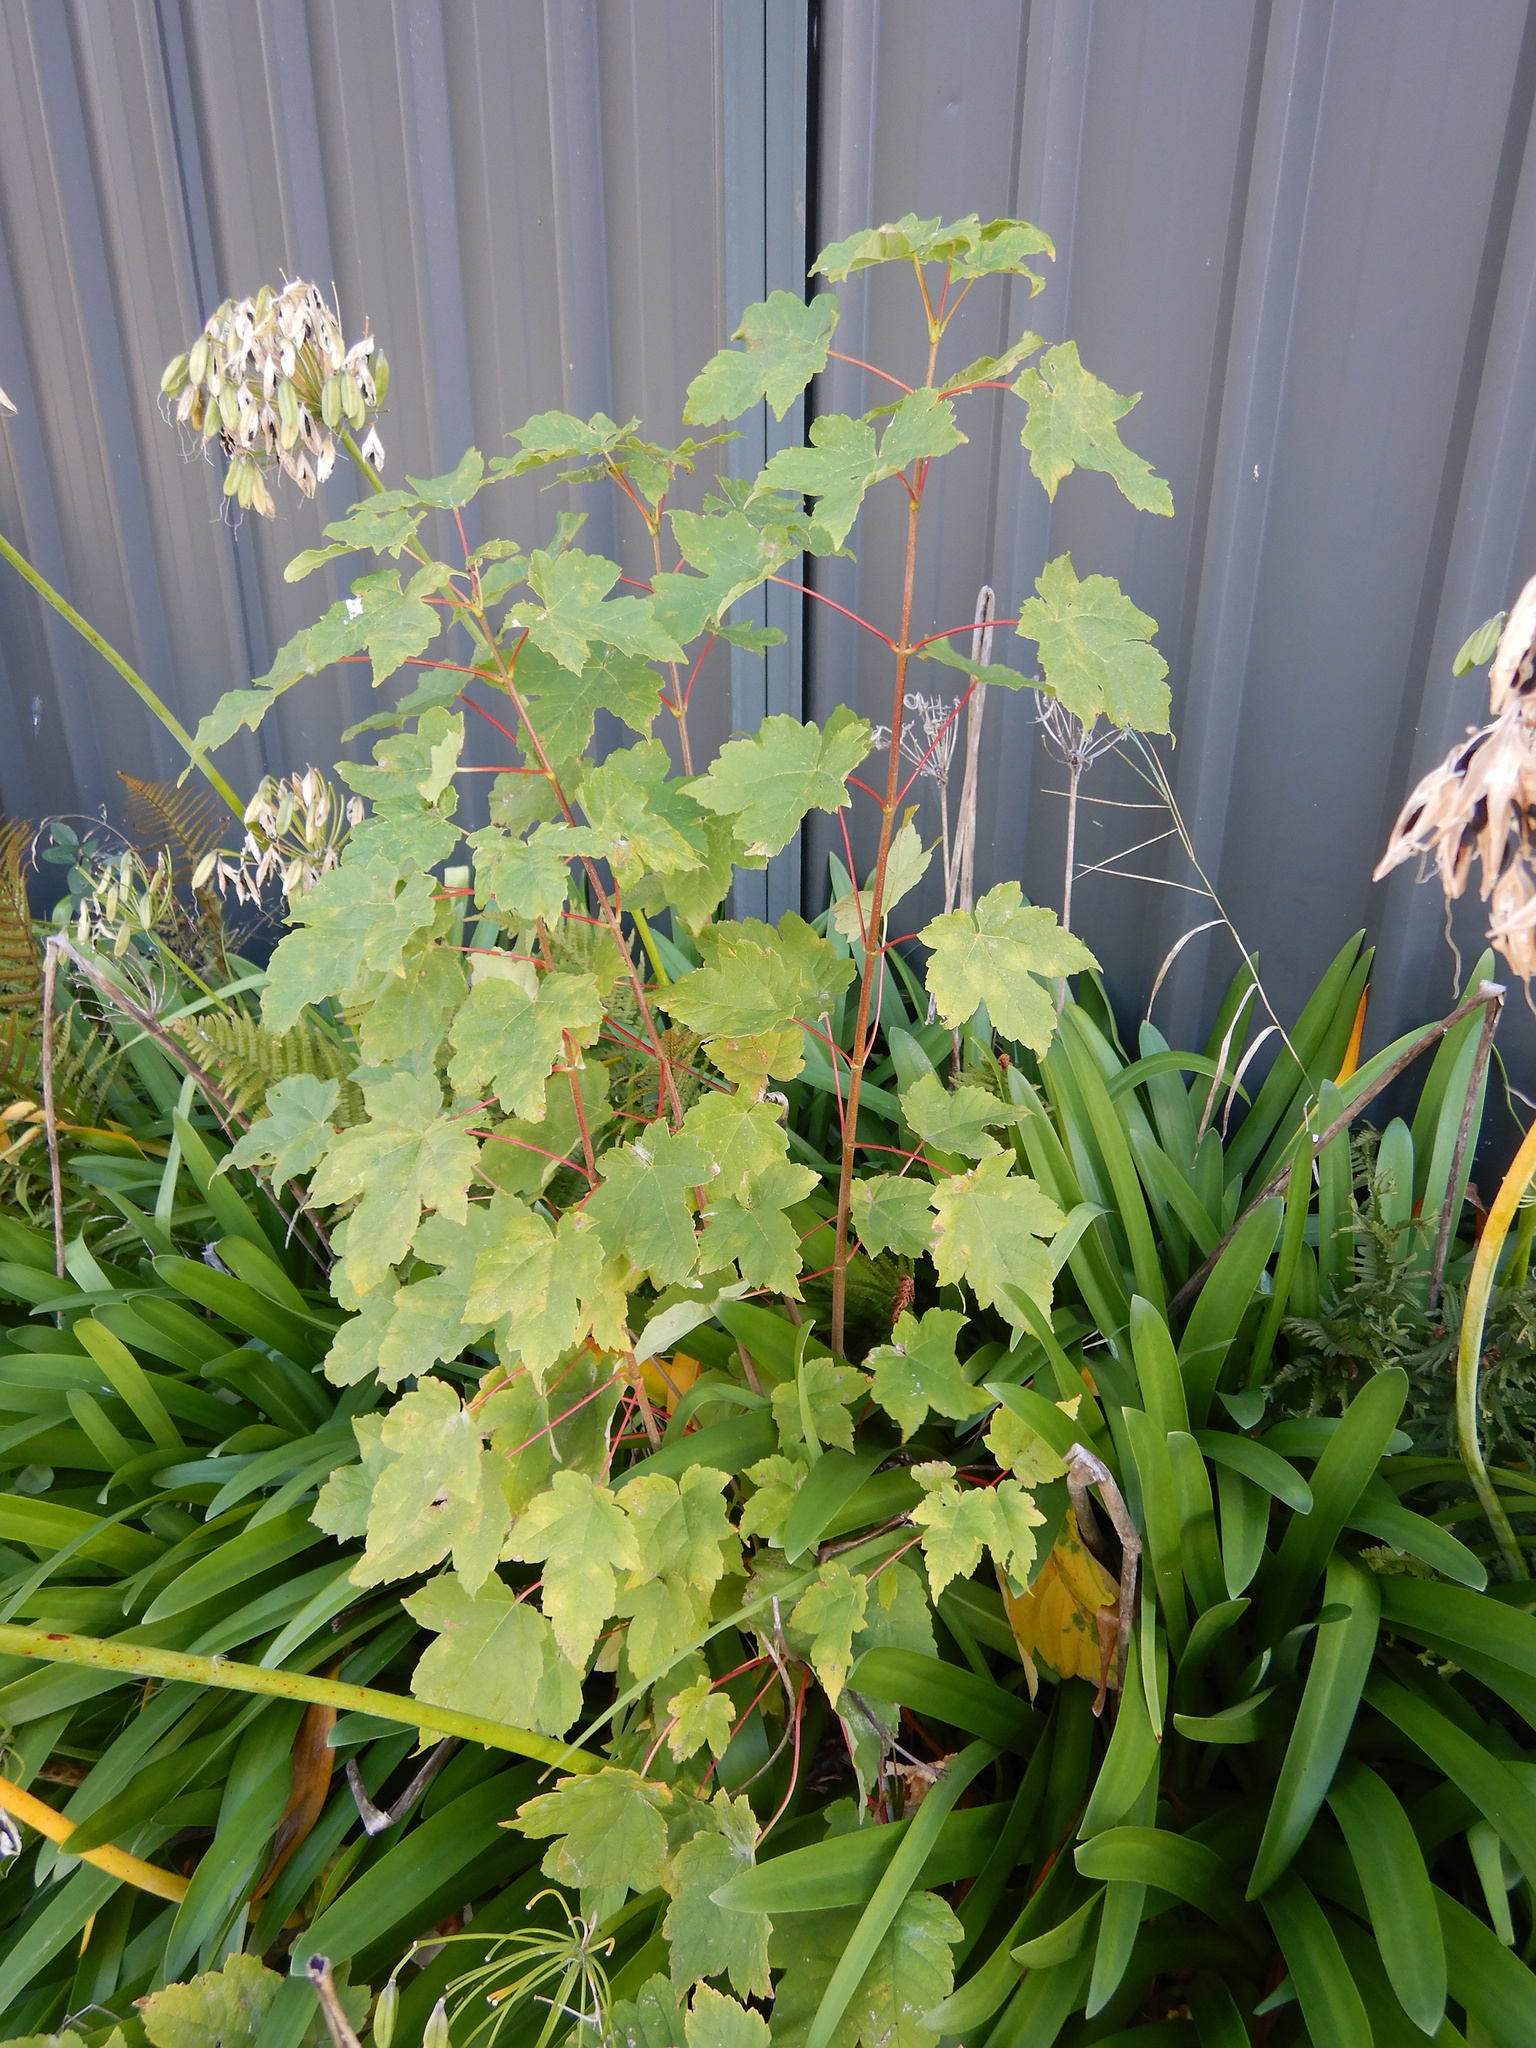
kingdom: Plantae
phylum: Tracheophyta
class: Magnoliopsida
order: Sapindales
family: Sapindaceae
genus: Acer
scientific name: Acer pseudoplatanus
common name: Sycamore
